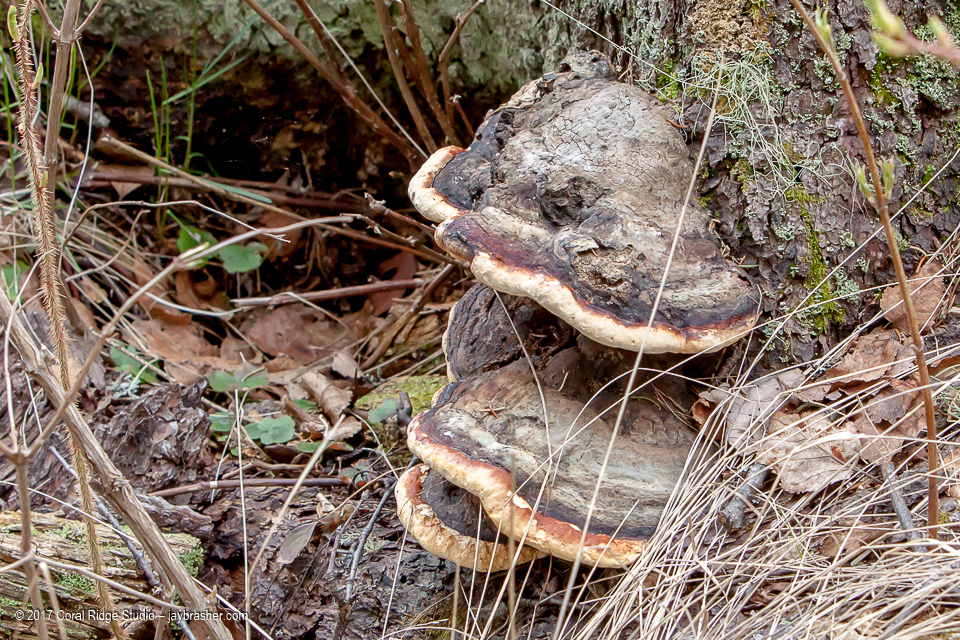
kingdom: Fungi
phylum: Basidiomycota
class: Agaricomycetes
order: Polyporales
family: Fomitopsidaceae
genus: Fomitopsis
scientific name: Fomitopsis mounceae
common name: Northern red belt
